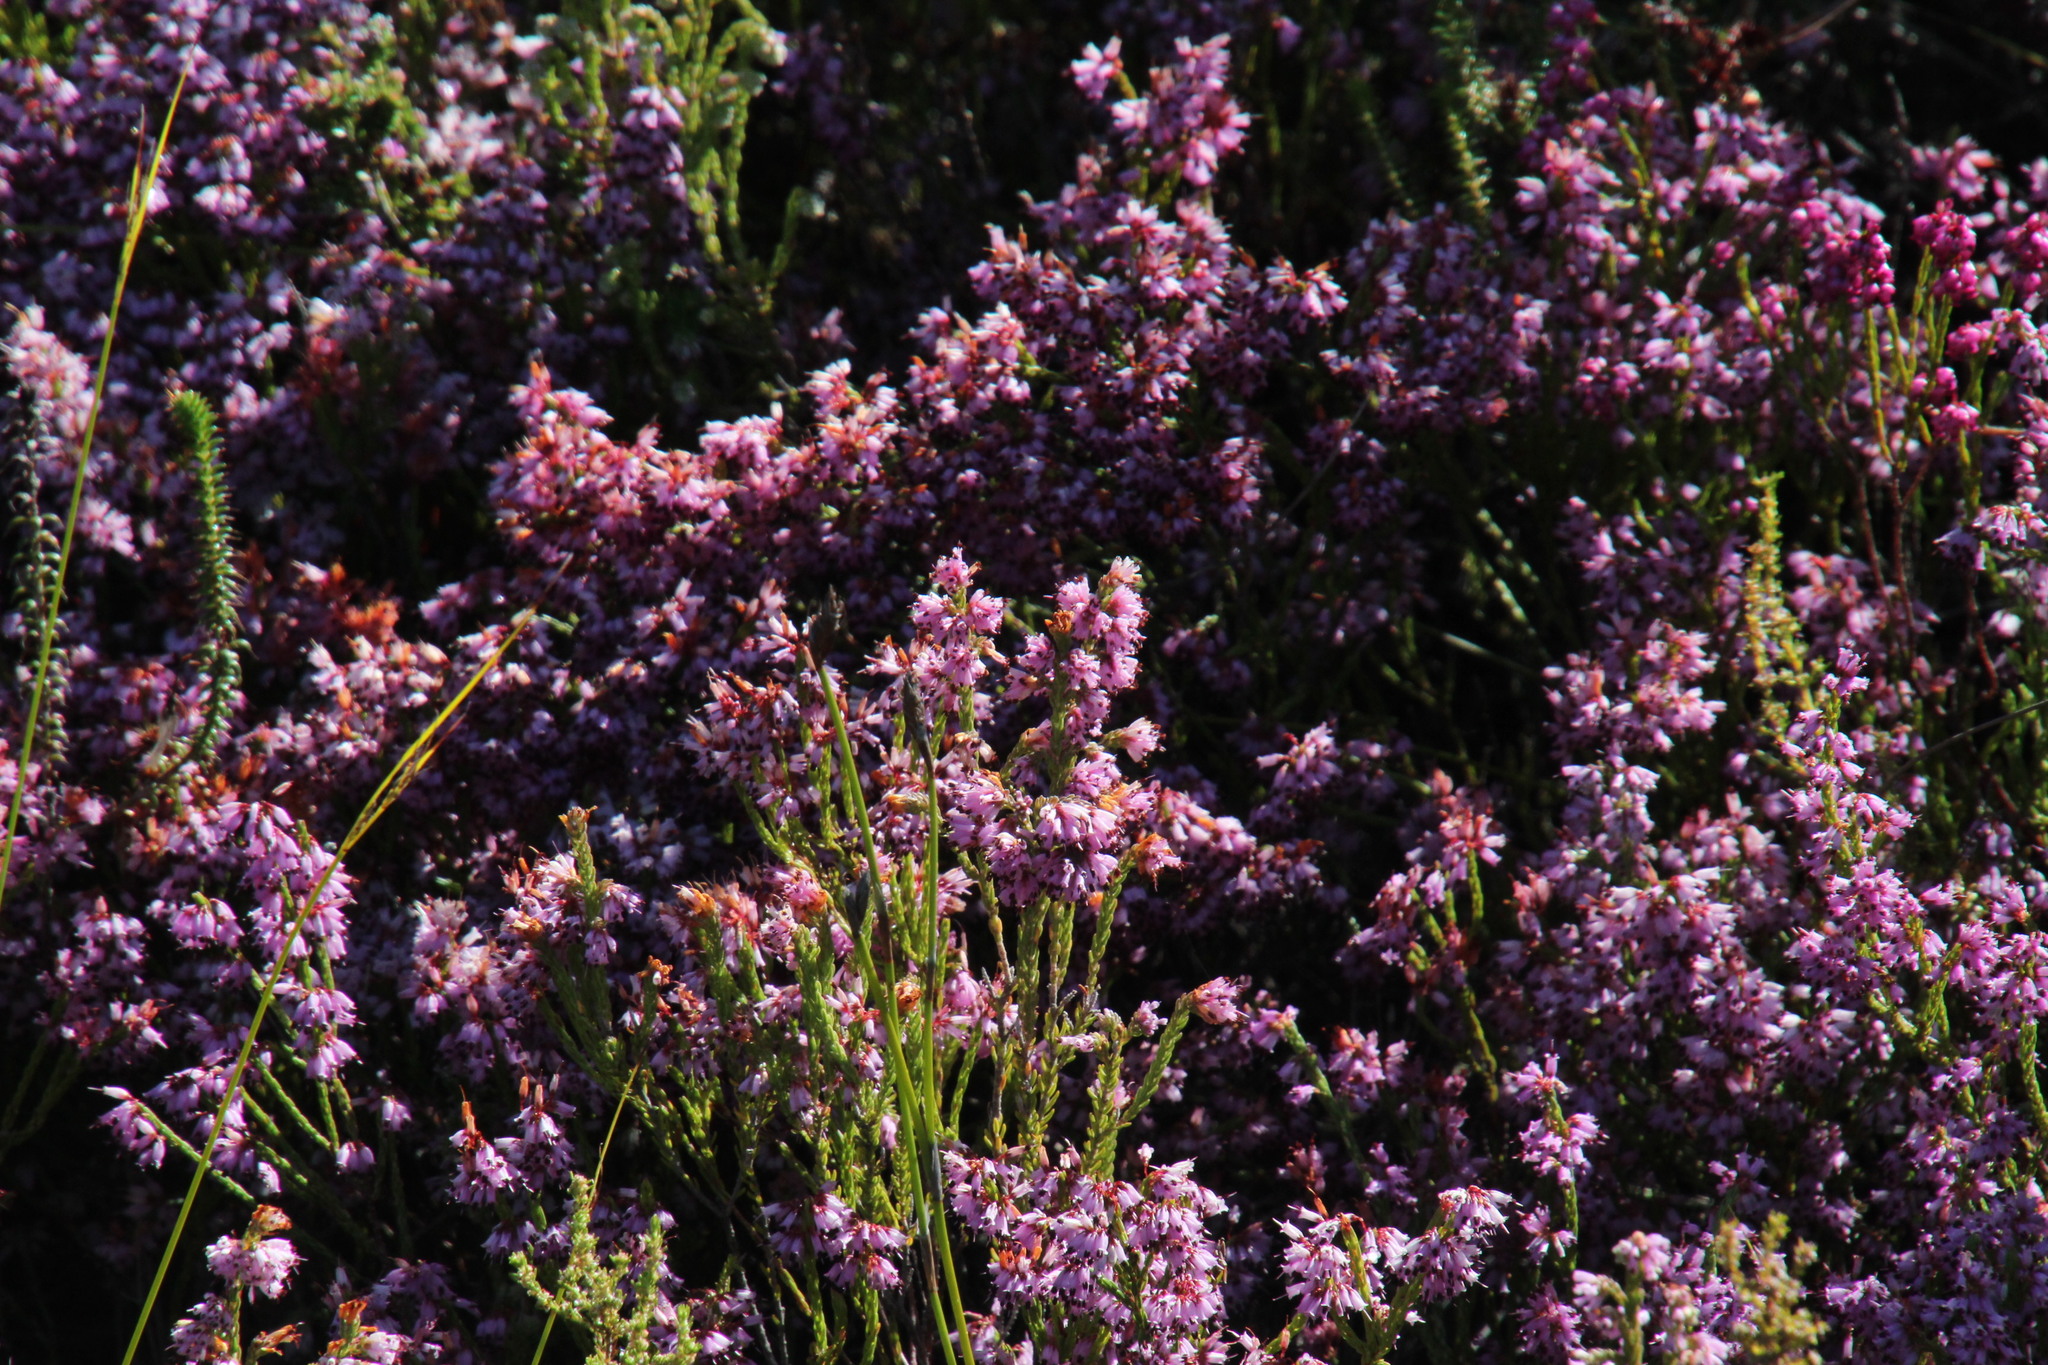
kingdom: Plantae
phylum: Tracheophyta
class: Magnoliopsida
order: Ericales
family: Ericaceae
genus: Erica
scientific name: Erica labialis
